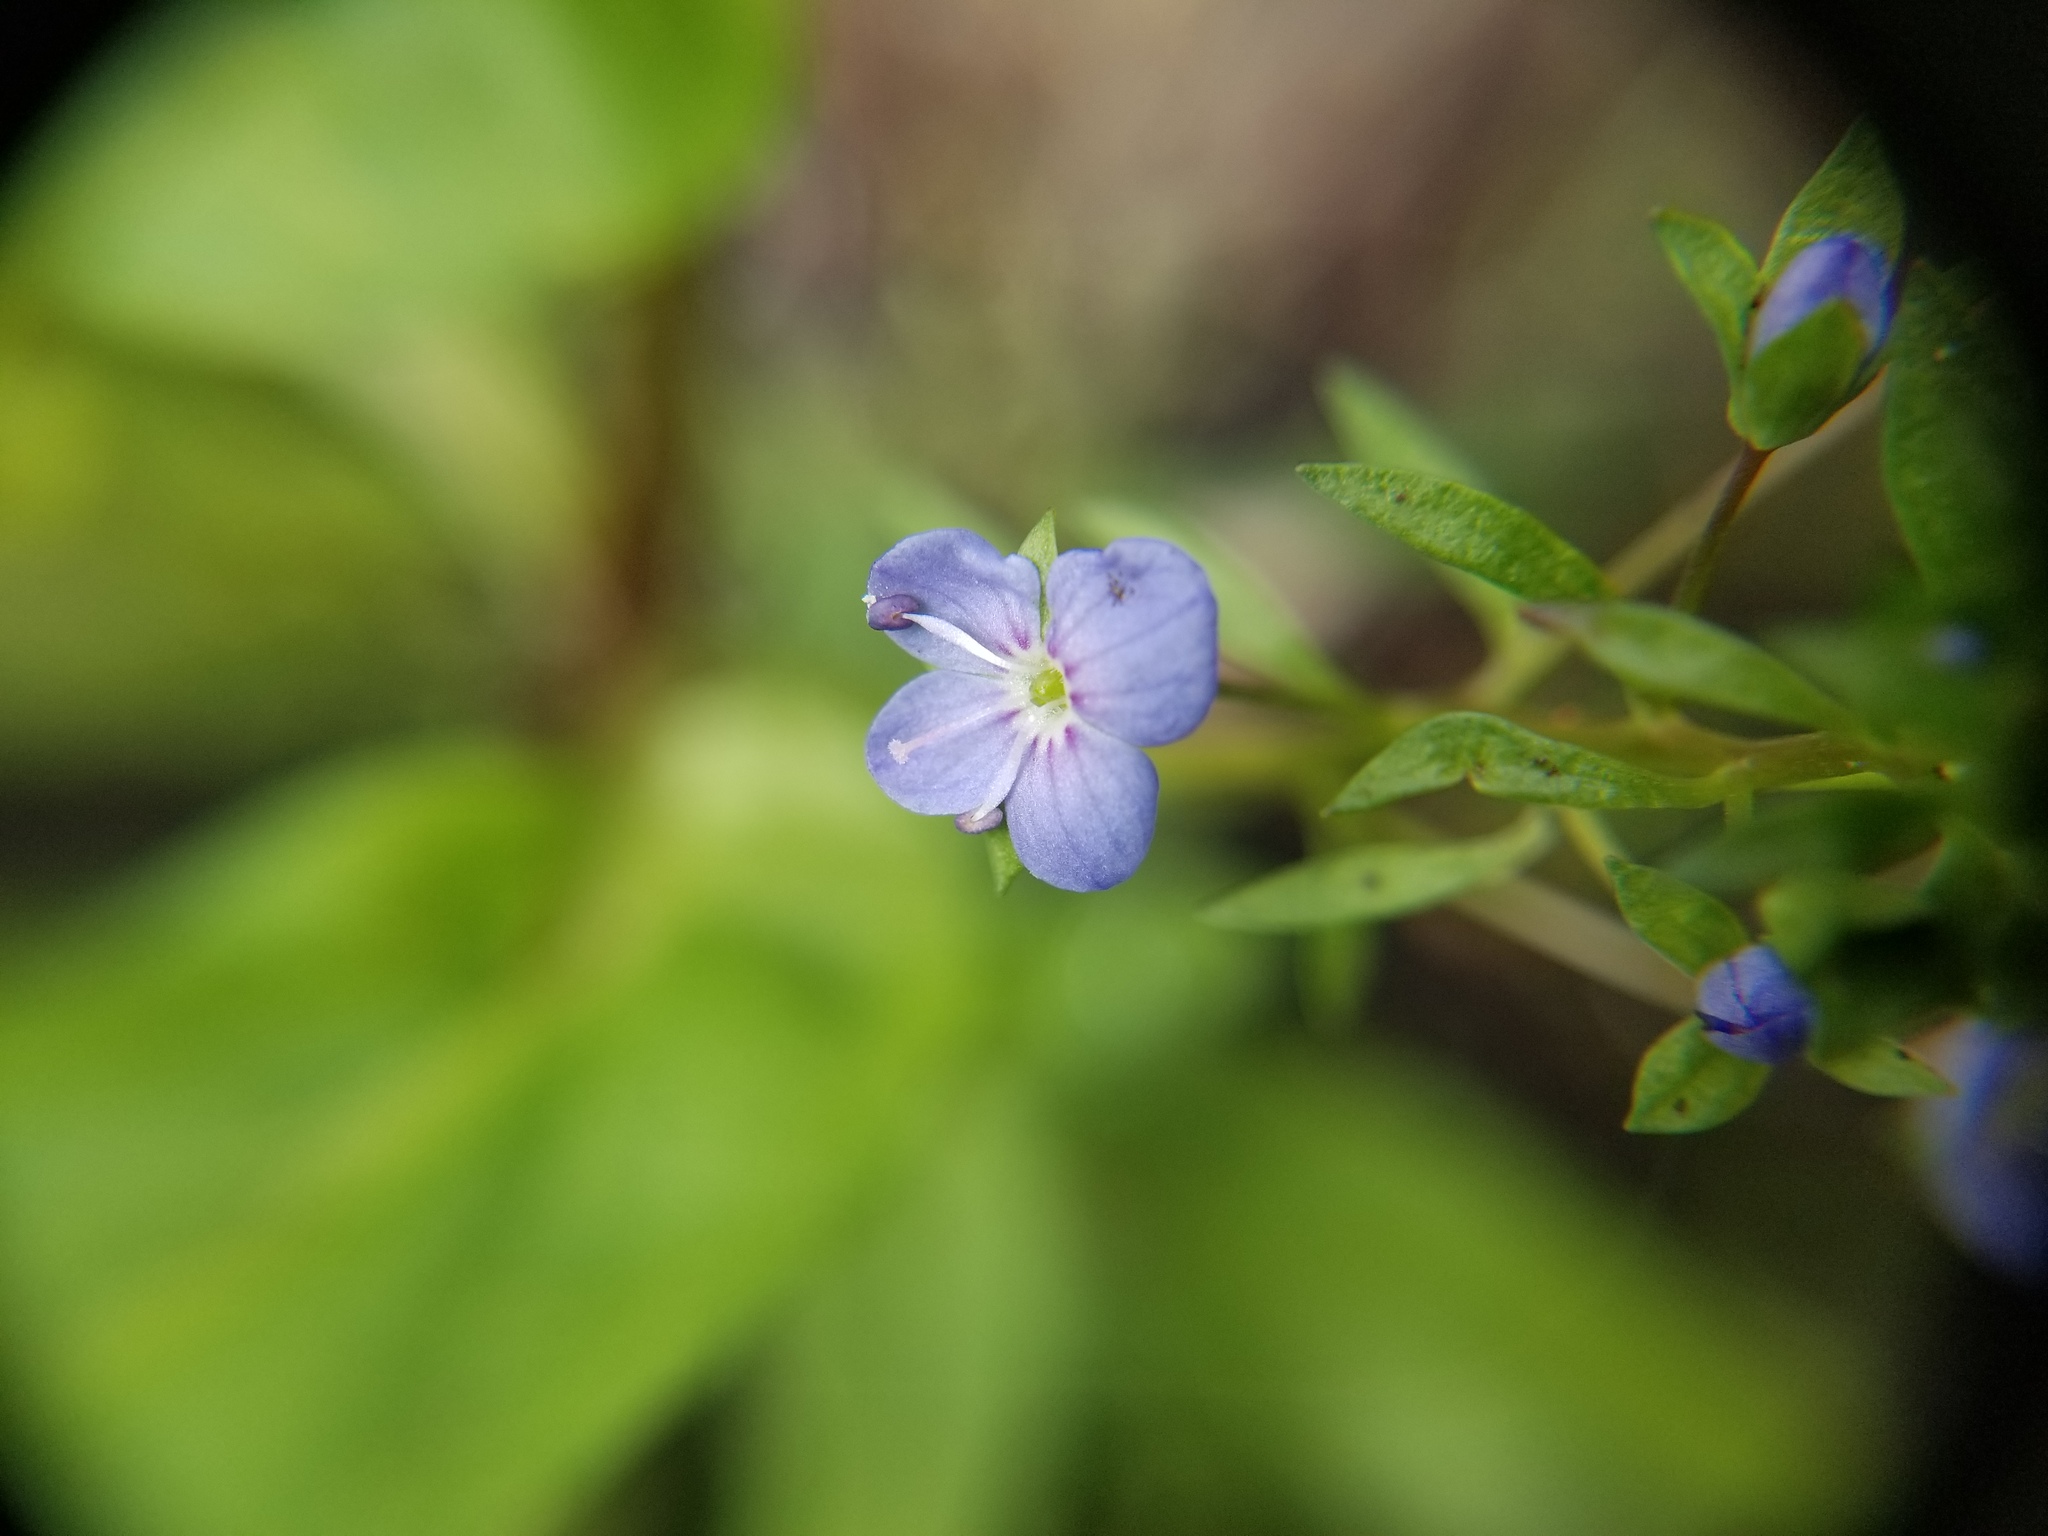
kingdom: Plantae
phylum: Tracheophyta
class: Magnoliopsida
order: Lamiales
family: Plantaginaceae
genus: Veronica
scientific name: Veronica americana
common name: American brooklime
